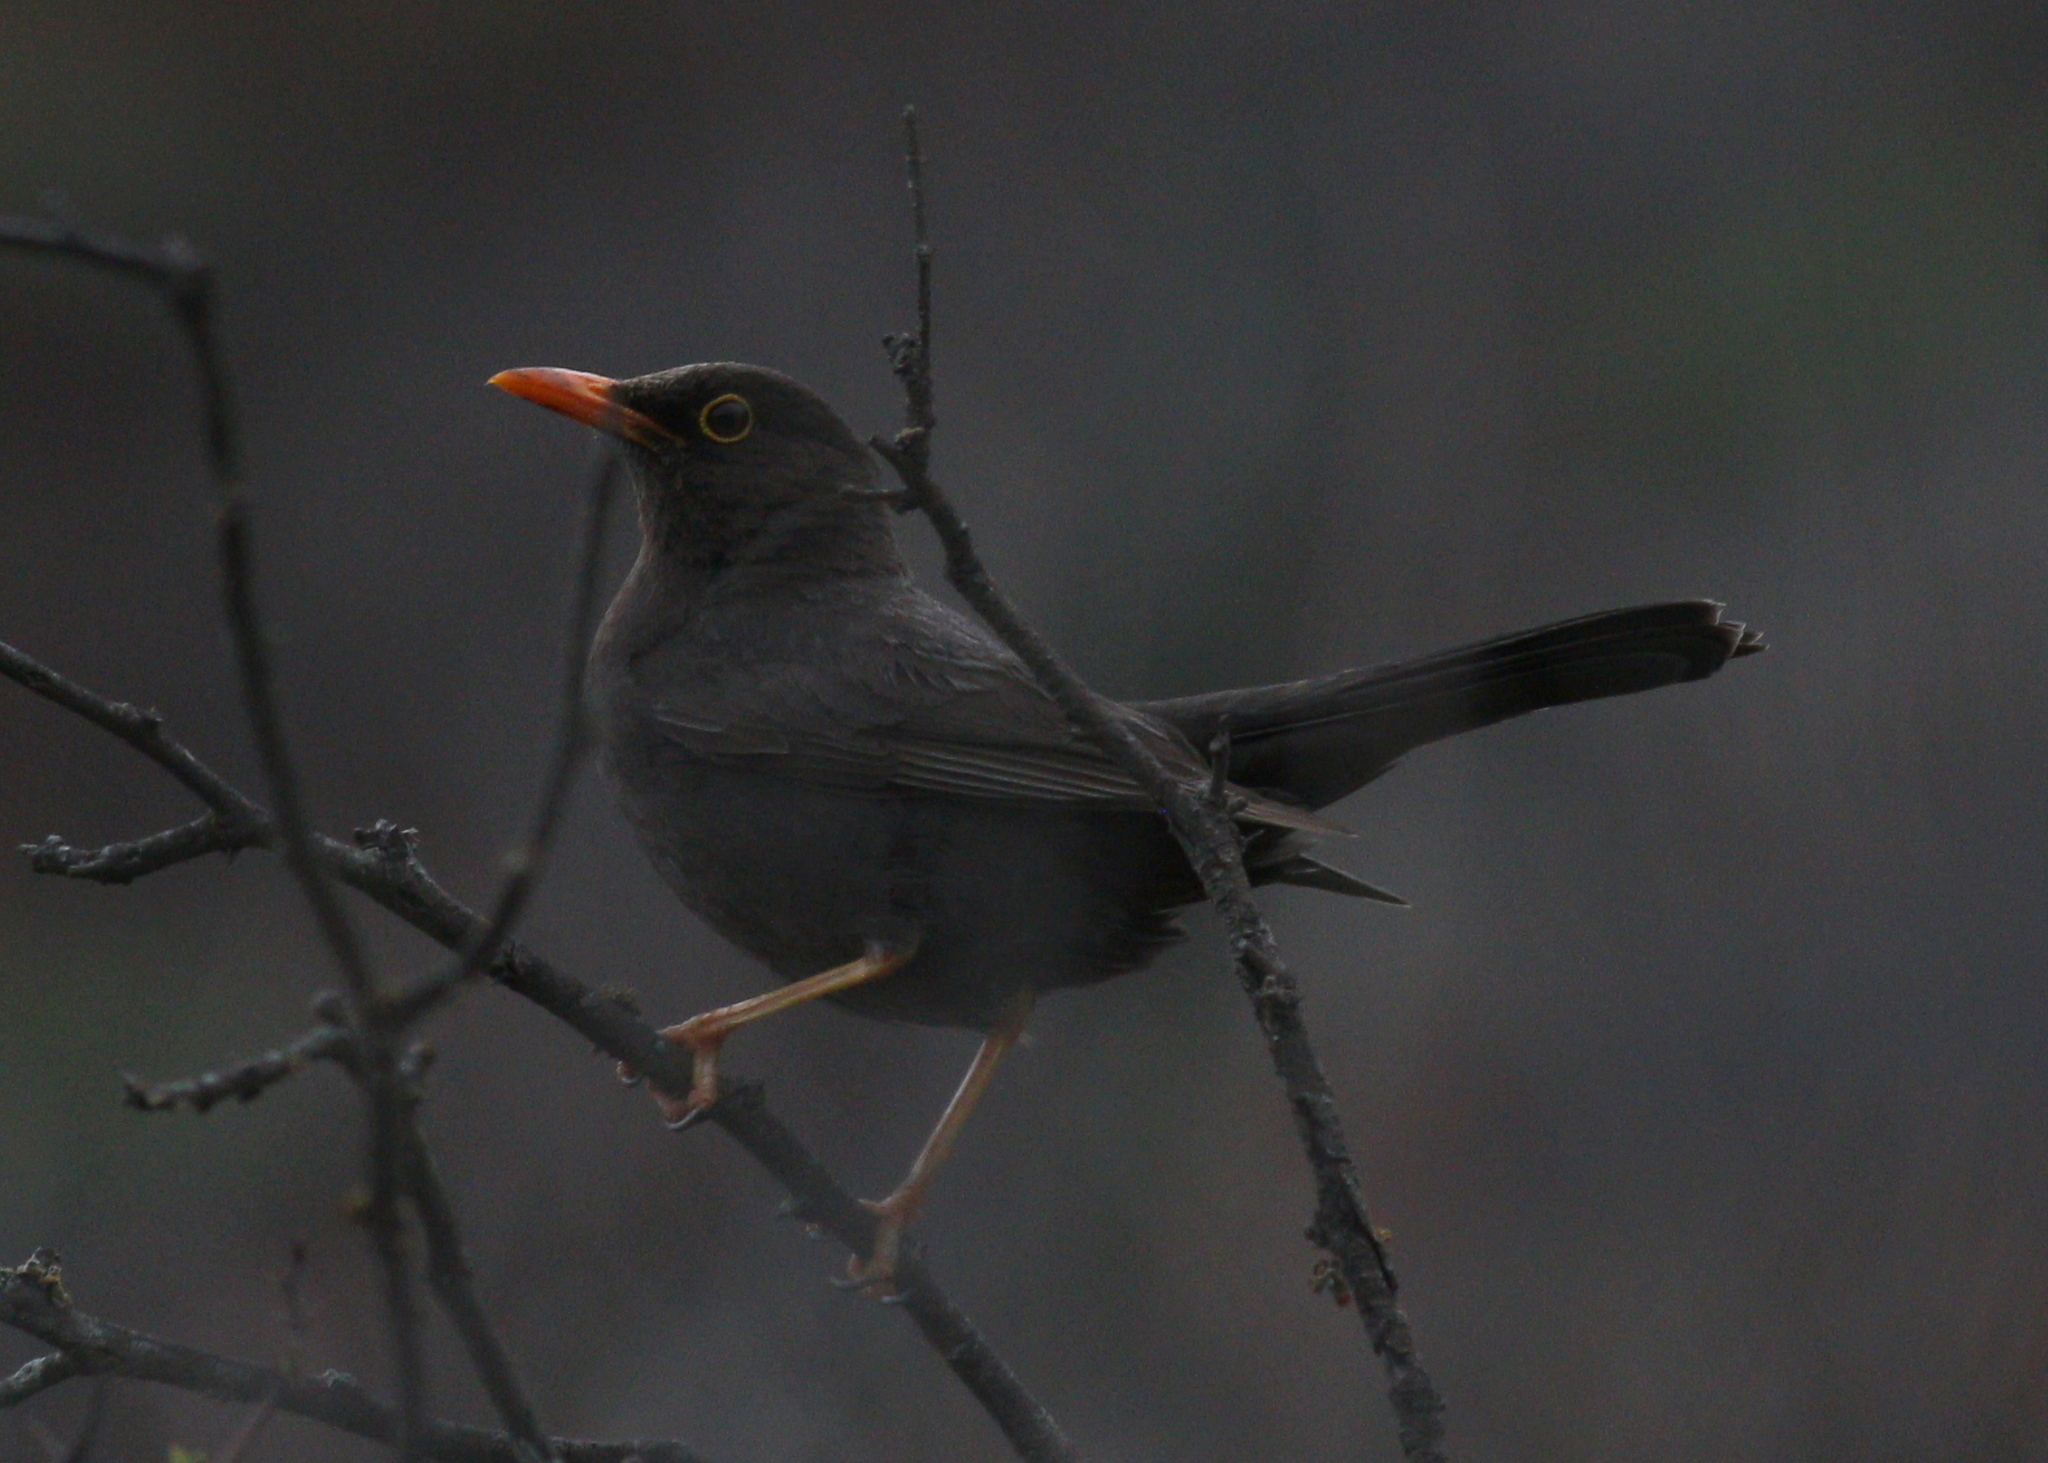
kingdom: Animalia
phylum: Chordata
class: Aves
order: Passeriformes
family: Turdidae
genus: Turdus
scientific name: Turdus chiguanco
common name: Chiguanco thrush
